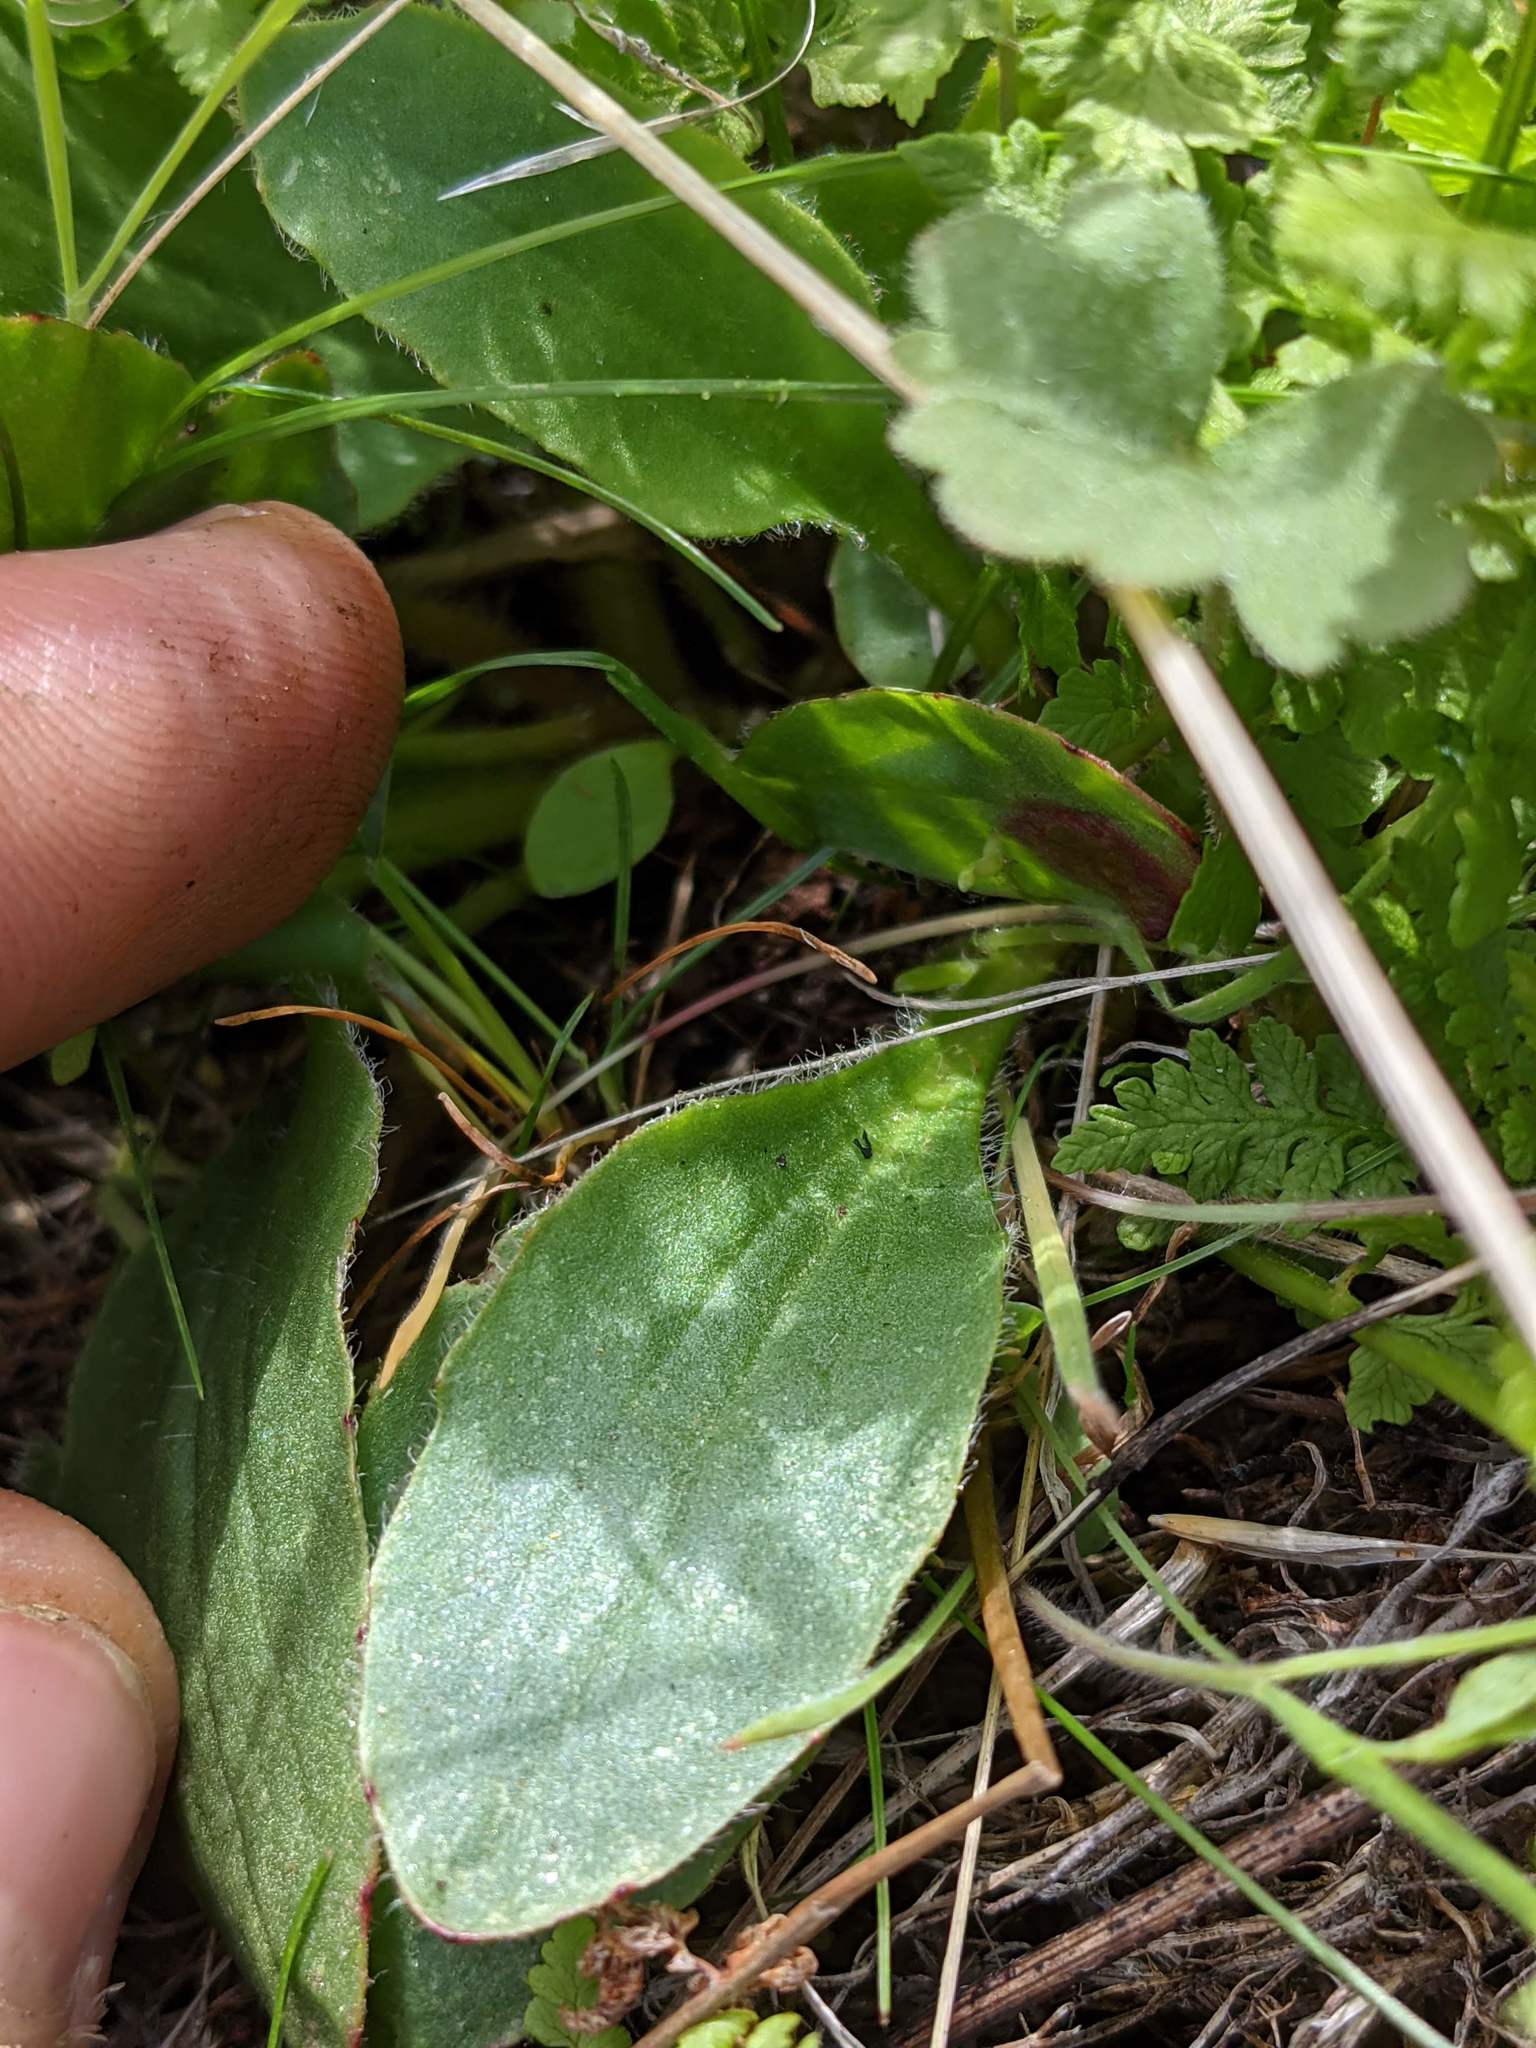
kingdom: Plantae
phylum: Tracheophyta
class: Magnoliopsida
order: Saxifragales
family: Saxifragaceae
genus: Micranthes
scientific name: Micranthes integrifolia
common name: Wholeleaf saxifrage
